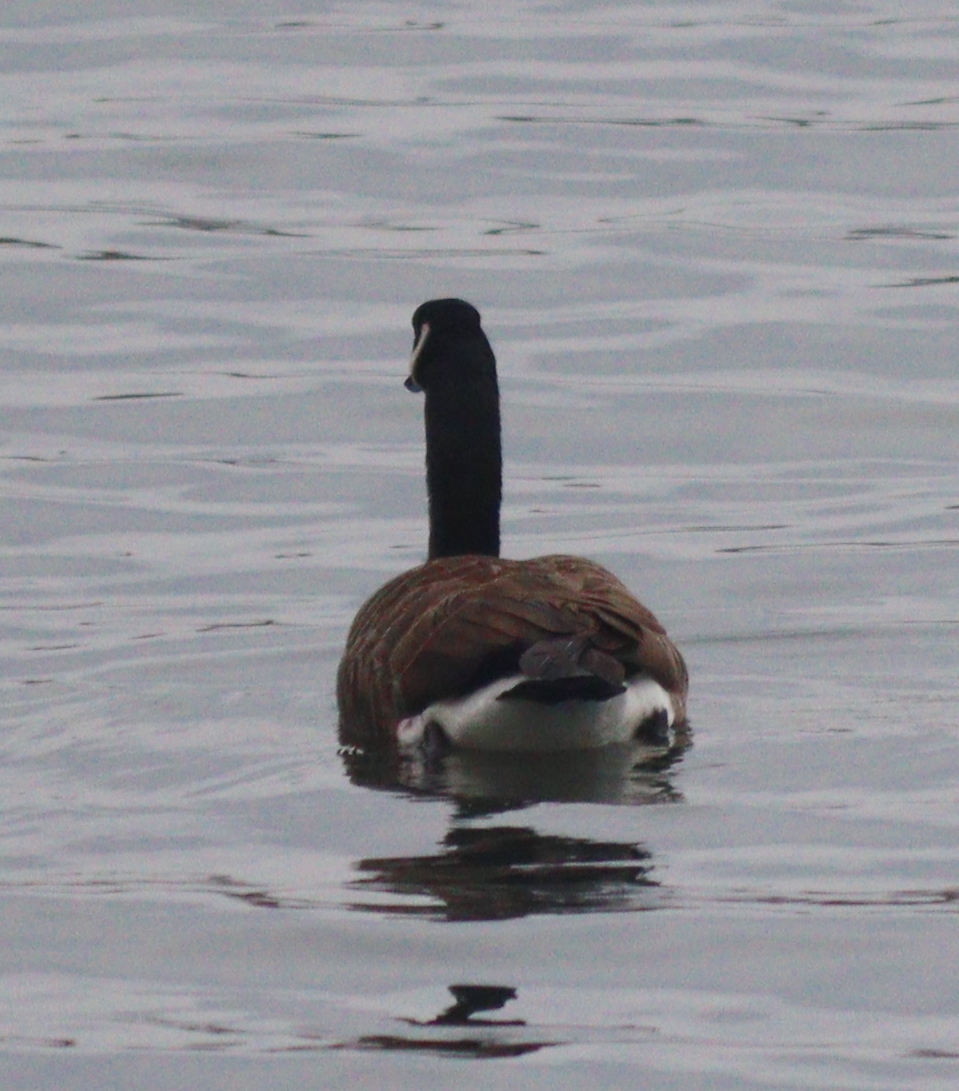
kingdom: Animalia
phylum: Chordata
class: Aves
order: Anseriformes
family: Anatidae
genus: Branta
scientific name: Branta canadensis
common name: Canada goose
